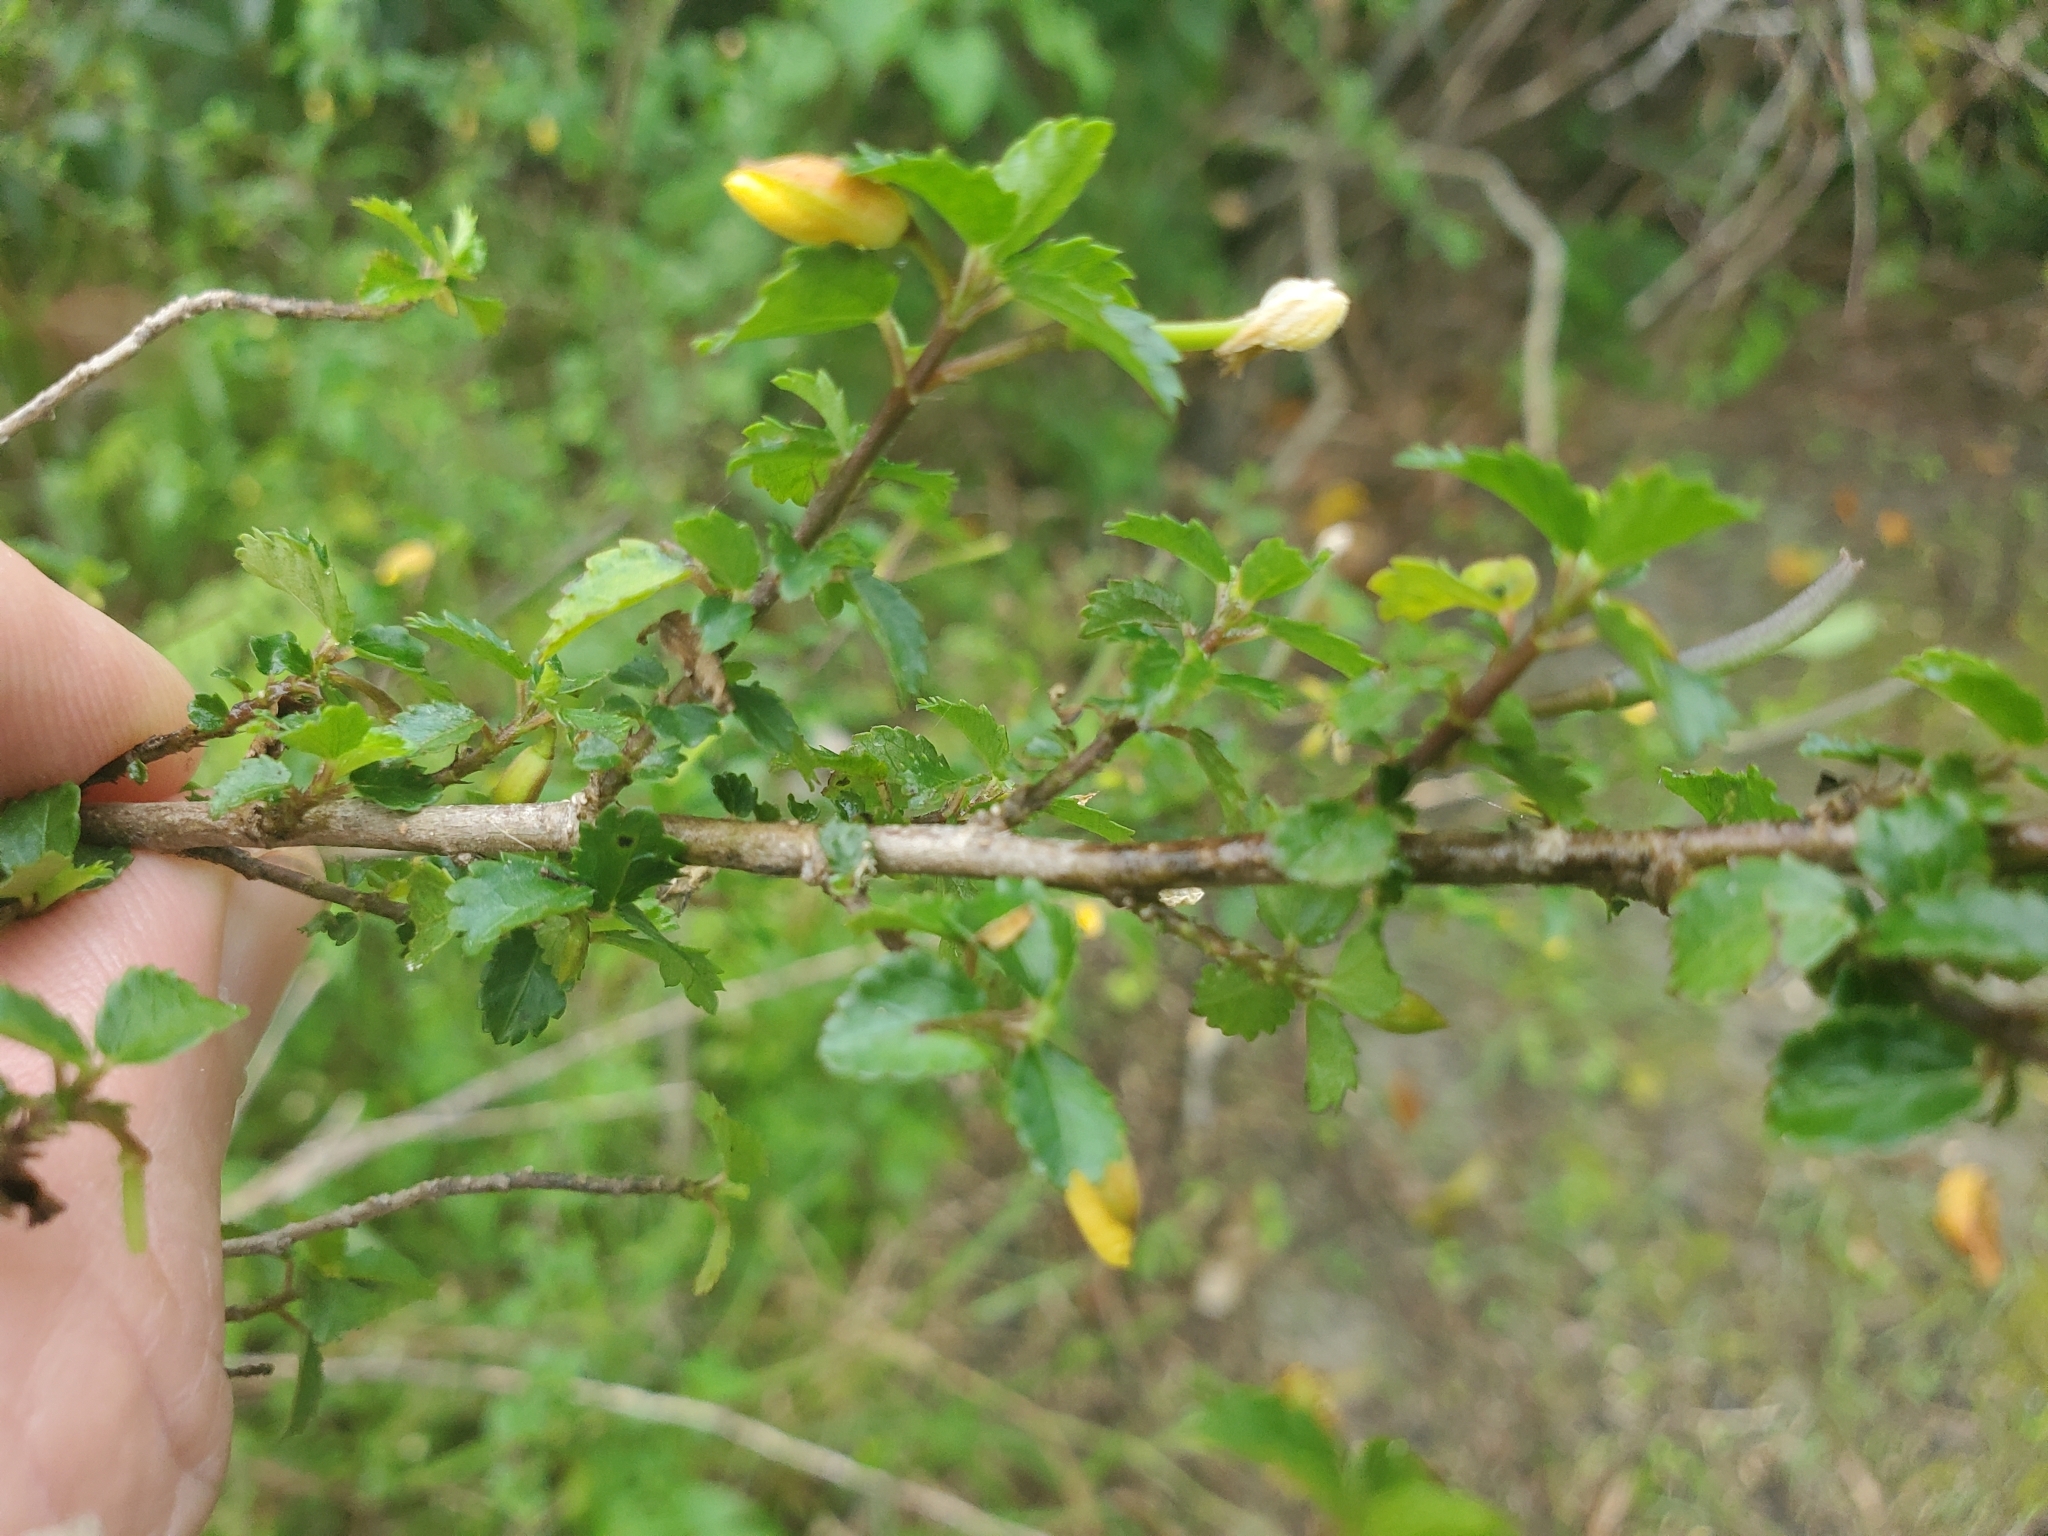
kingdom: Plantae
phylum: Tracheophyta
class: Magnoliopsida
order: Malvales
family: Malvaceae
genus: Corchorus
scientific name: Corchorus siliquosus
